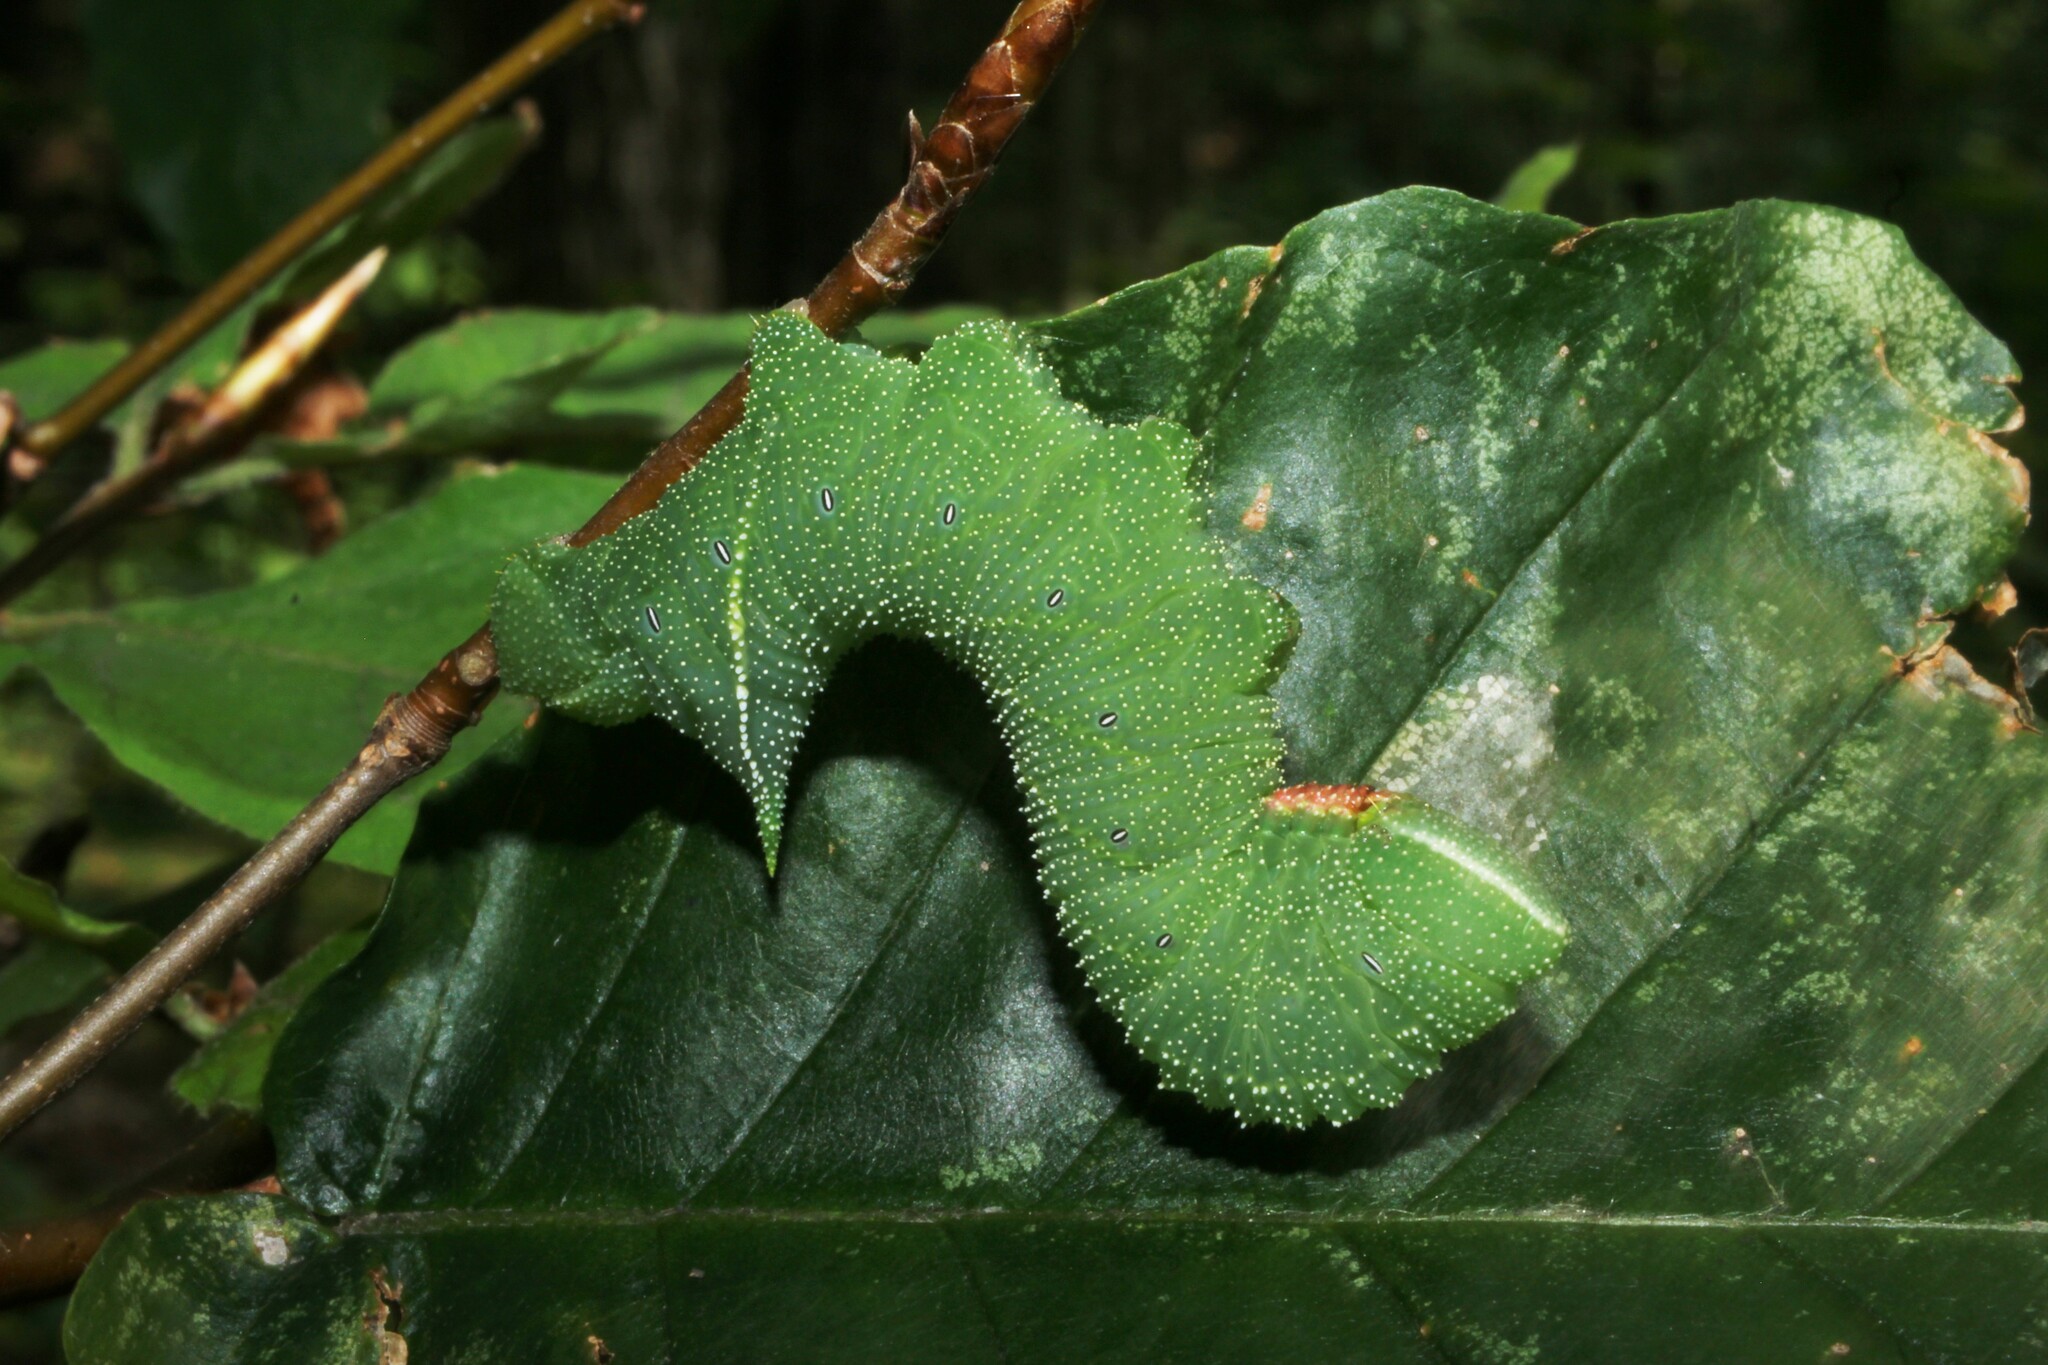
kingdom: Animalia
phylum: Arthropoda
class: Insecta
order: Lepidoptera
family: Sphingidae
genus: Paonias
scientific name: Paonias excaecata
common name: Blind-eyed sphinx
